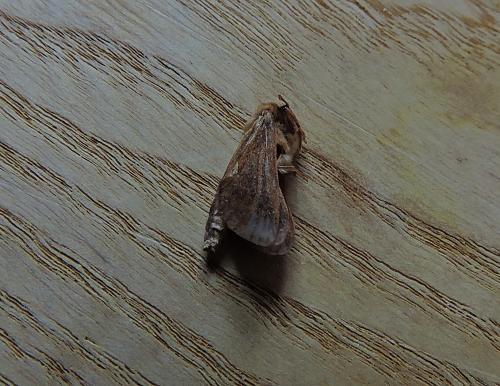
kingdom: Animalia
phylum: Arthropoda
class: Insecta
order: Lepidoptera
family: Hepialidae
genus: Korscheltellus
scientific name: Korscheltellus lupulina
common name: Common swift
